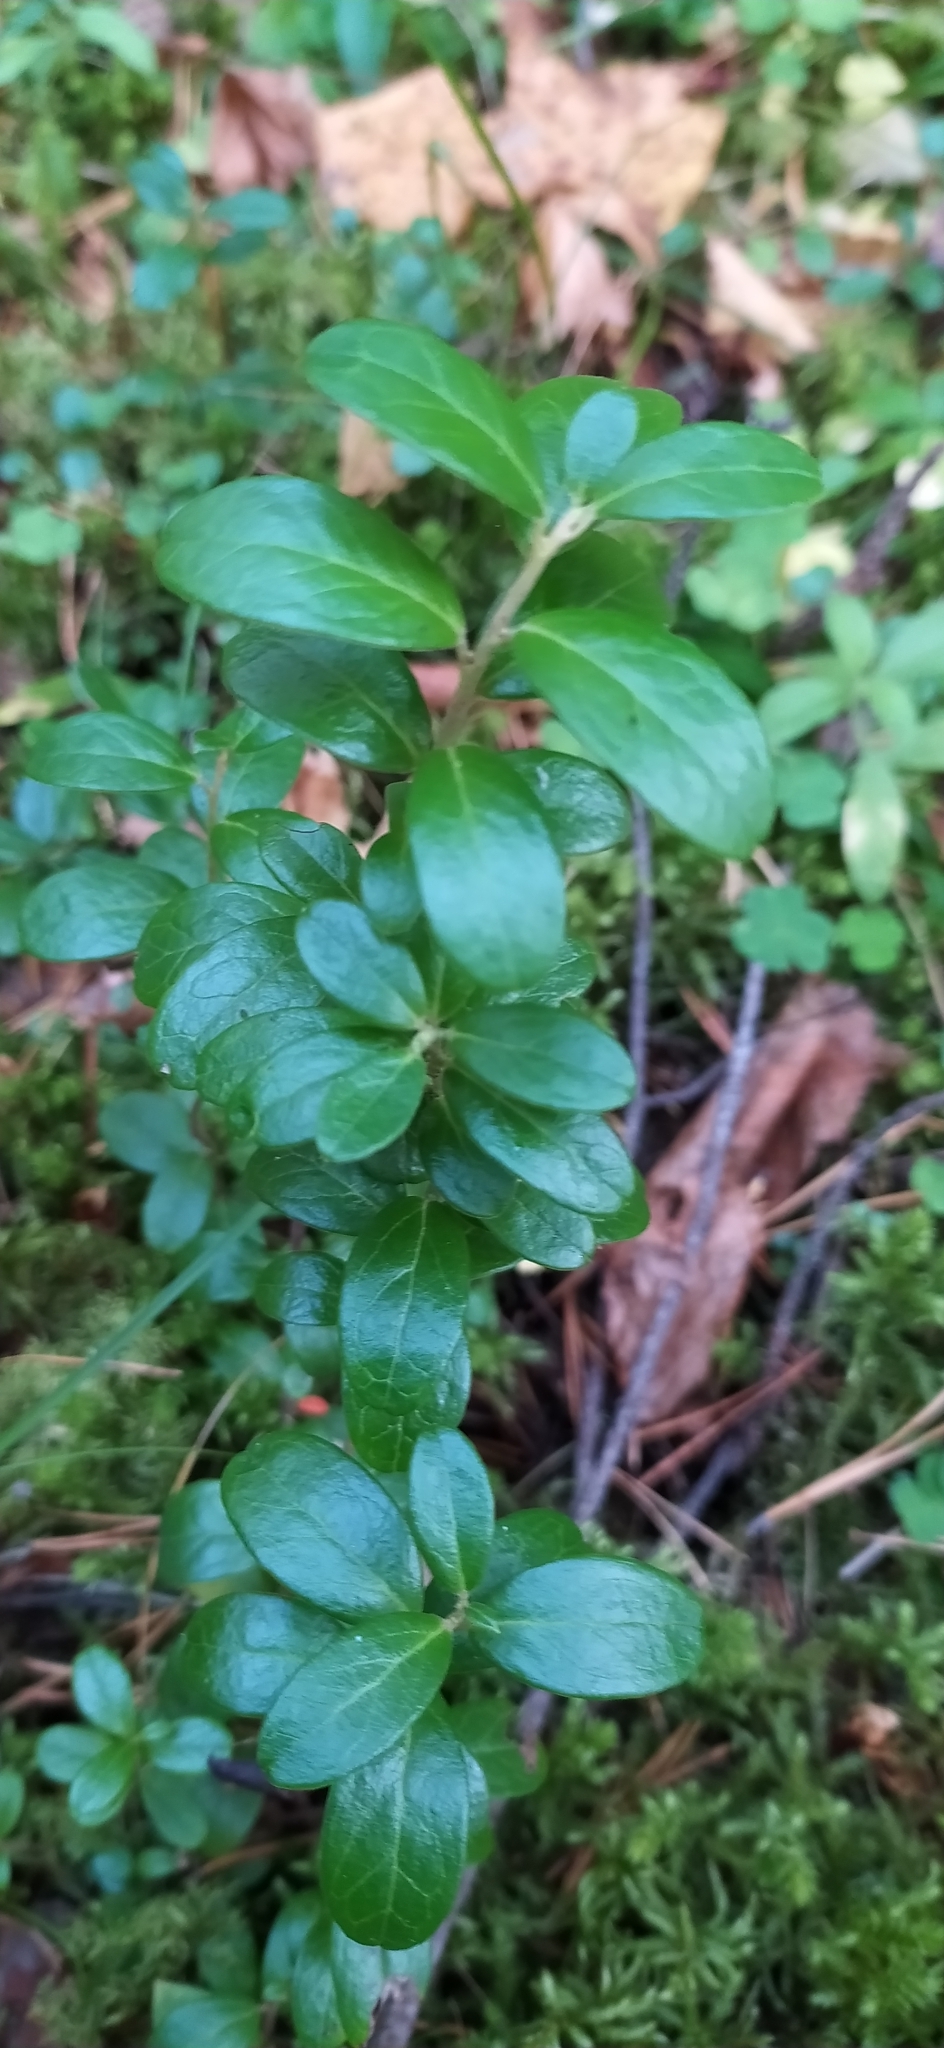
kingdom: Plantae
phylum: Tracheophyta
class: Magnoliopsida
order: Ericales
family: Ericaceae
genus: Vaccinium
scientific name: Vaccinium vitis-idaea
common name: Cowberry
